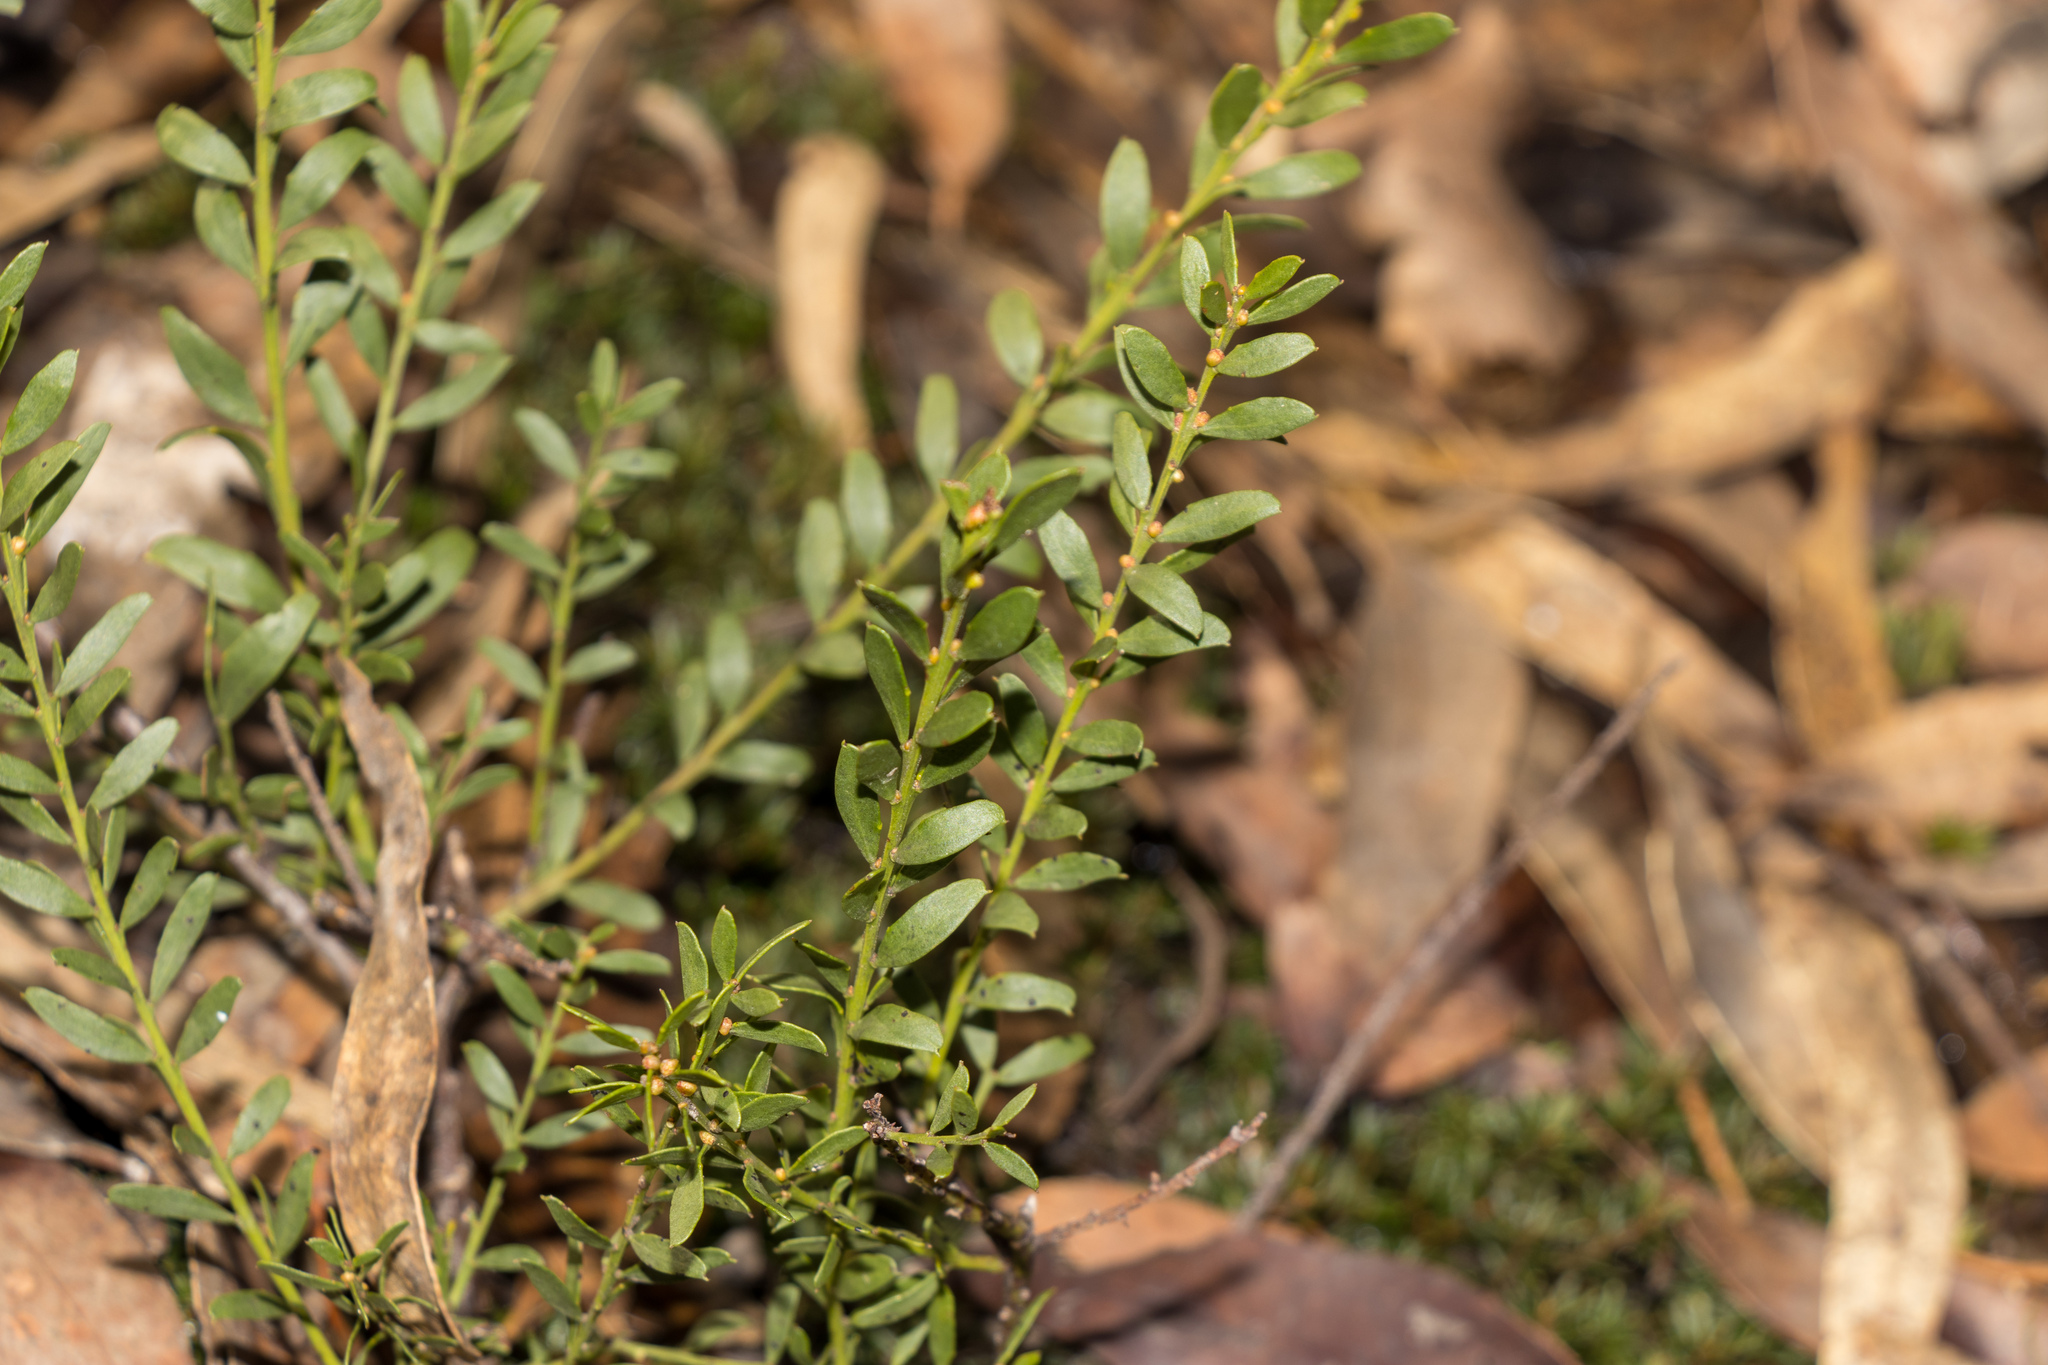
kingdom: Plantae
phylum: Tracheophyta
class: Magnoliopsida
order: Fabales
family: Fabaceae
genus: Acacia
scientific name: Acacia acinacea
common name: Gold-dust acacia
